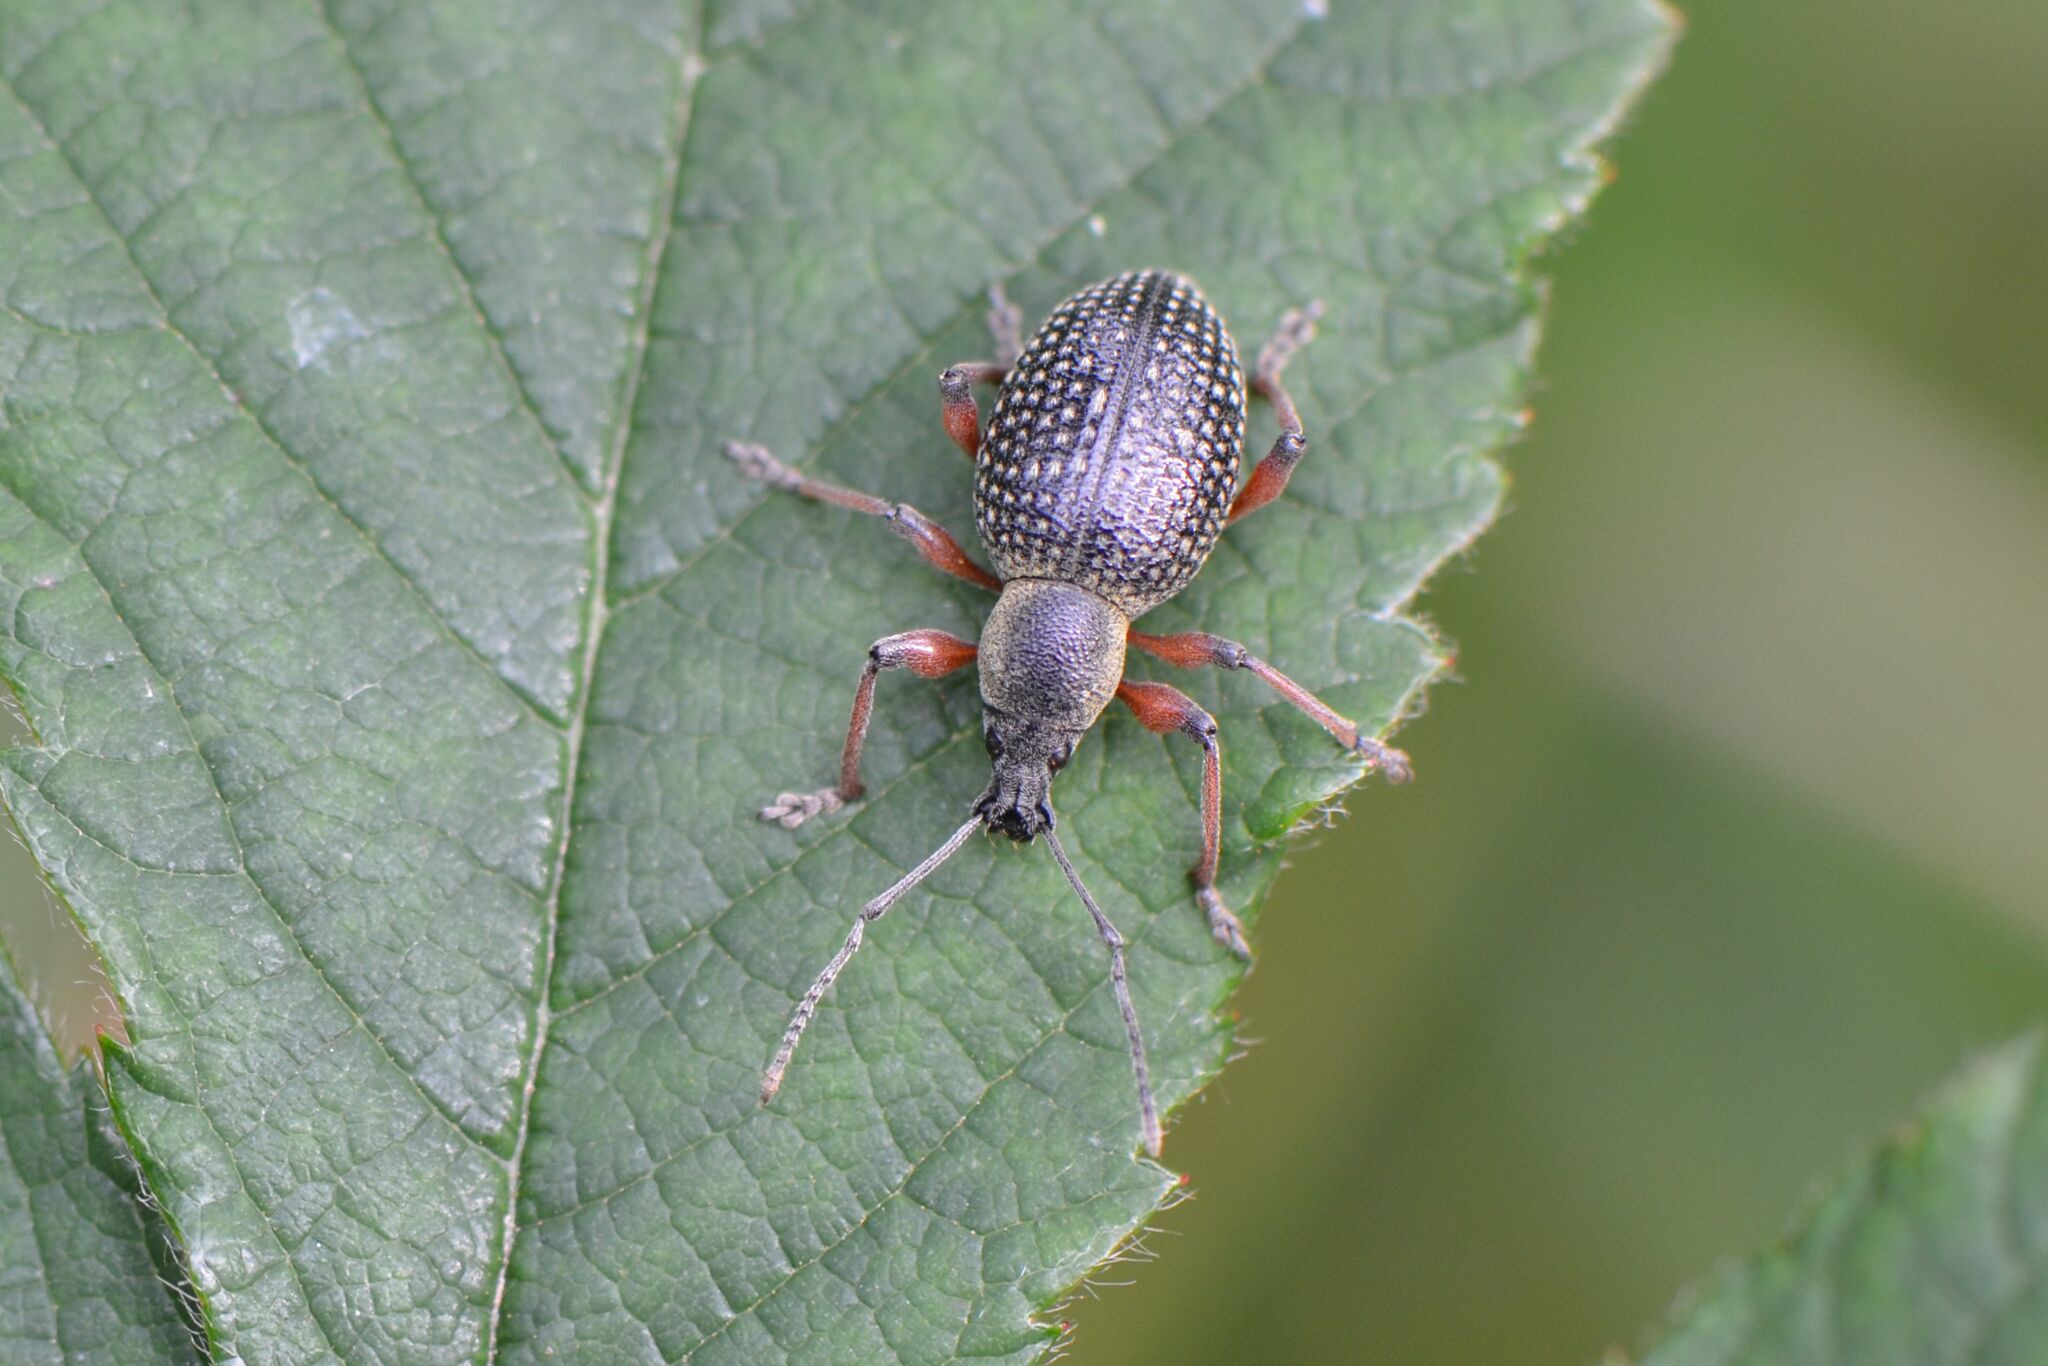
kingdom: Animalia
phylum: Arthropoda
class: Insecta
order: Coleoptera
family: Curculionidae
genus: Otiorhynchus
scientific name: Otiorhynchus coecus
